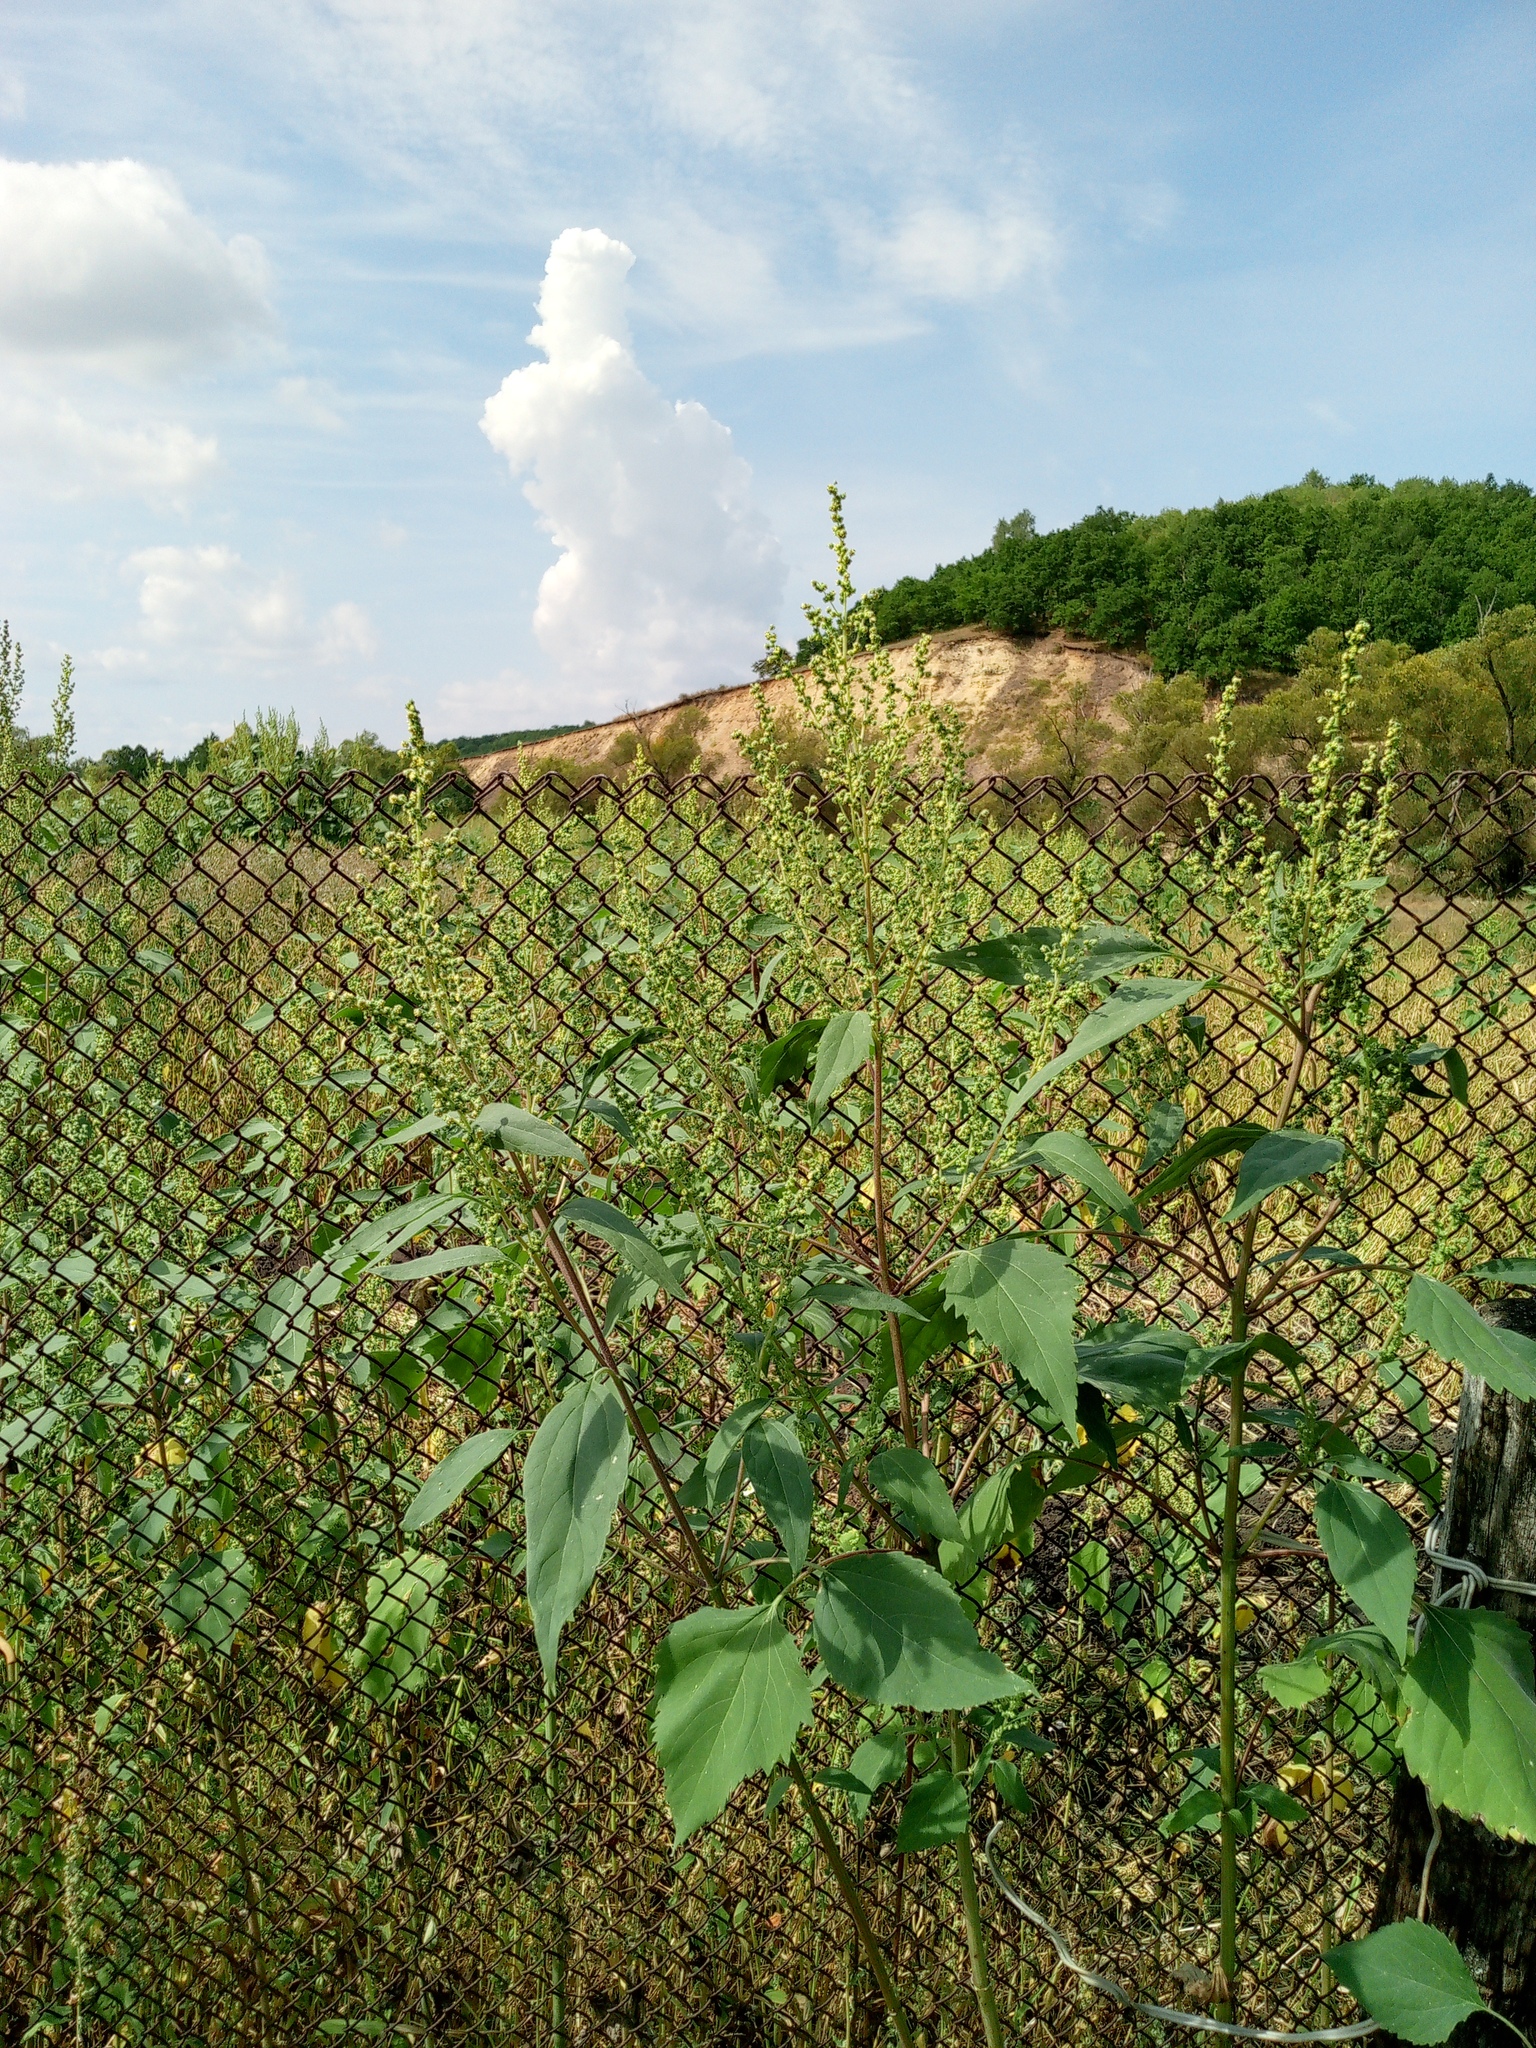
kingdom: Plantae
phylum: Tracheophyta
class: Magnoliopsida
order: Asterales
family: Asteraceae
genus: Cyclachaena
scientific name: Cyclachaena xanthiifolia
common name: Giant sumpweed
